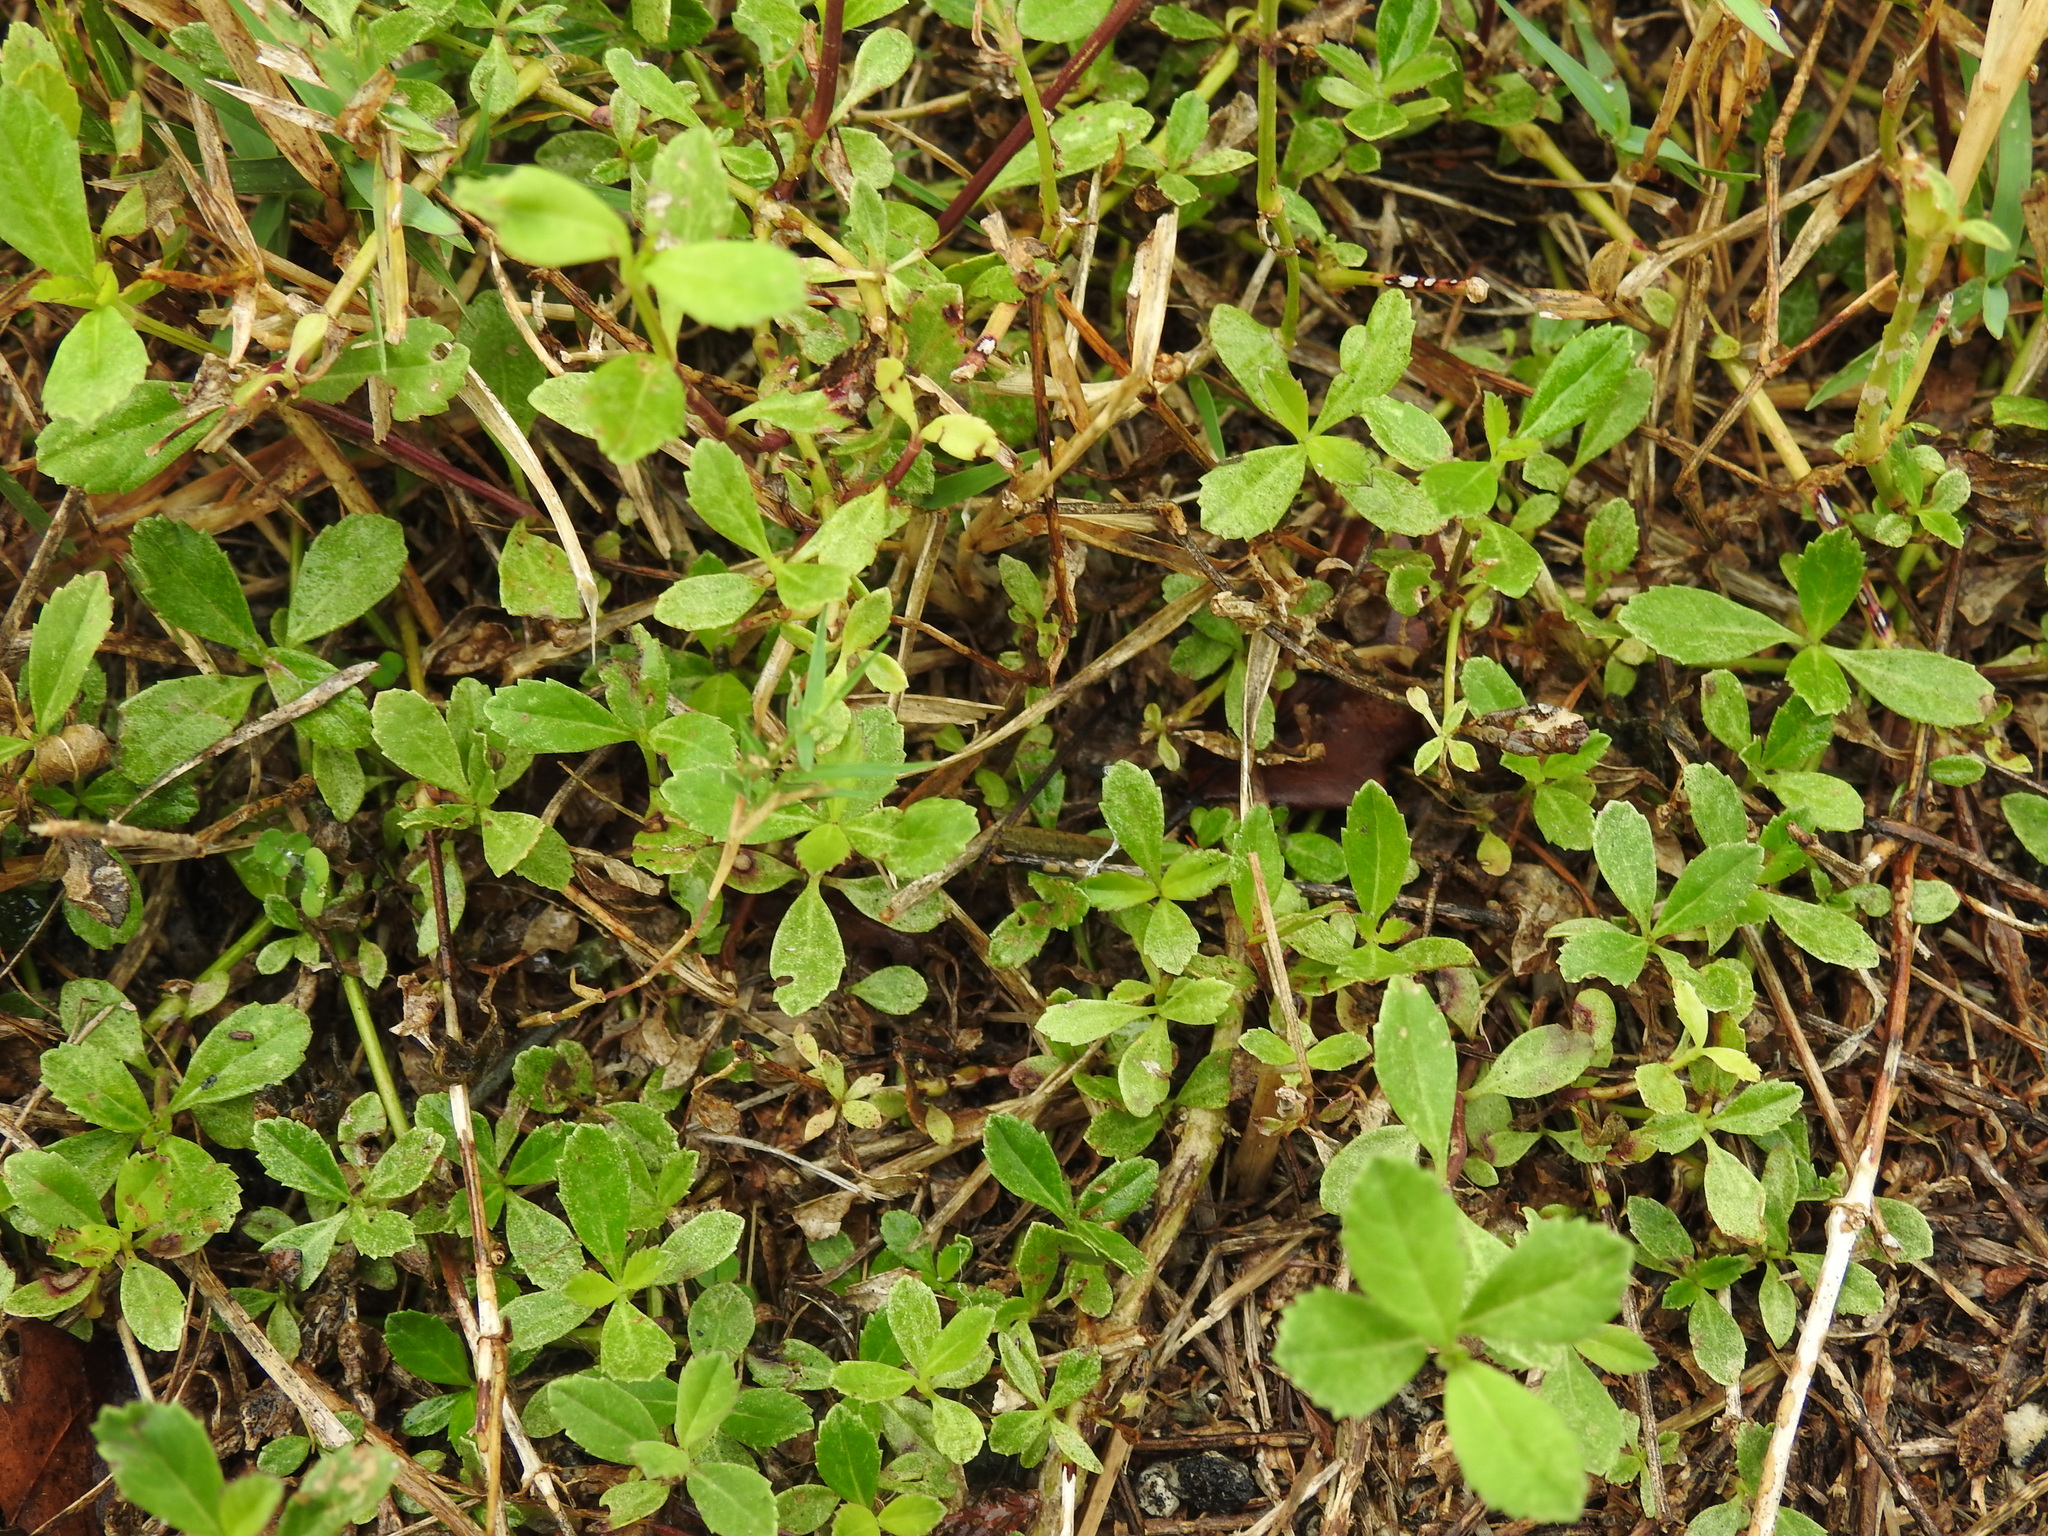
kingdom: Plantae
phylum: Tracheophyta
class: Magnoliopsida
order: Lamiales
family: Verbenaceae
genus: Phyla
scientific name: Phyla nodiflora
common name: Frogfruit
